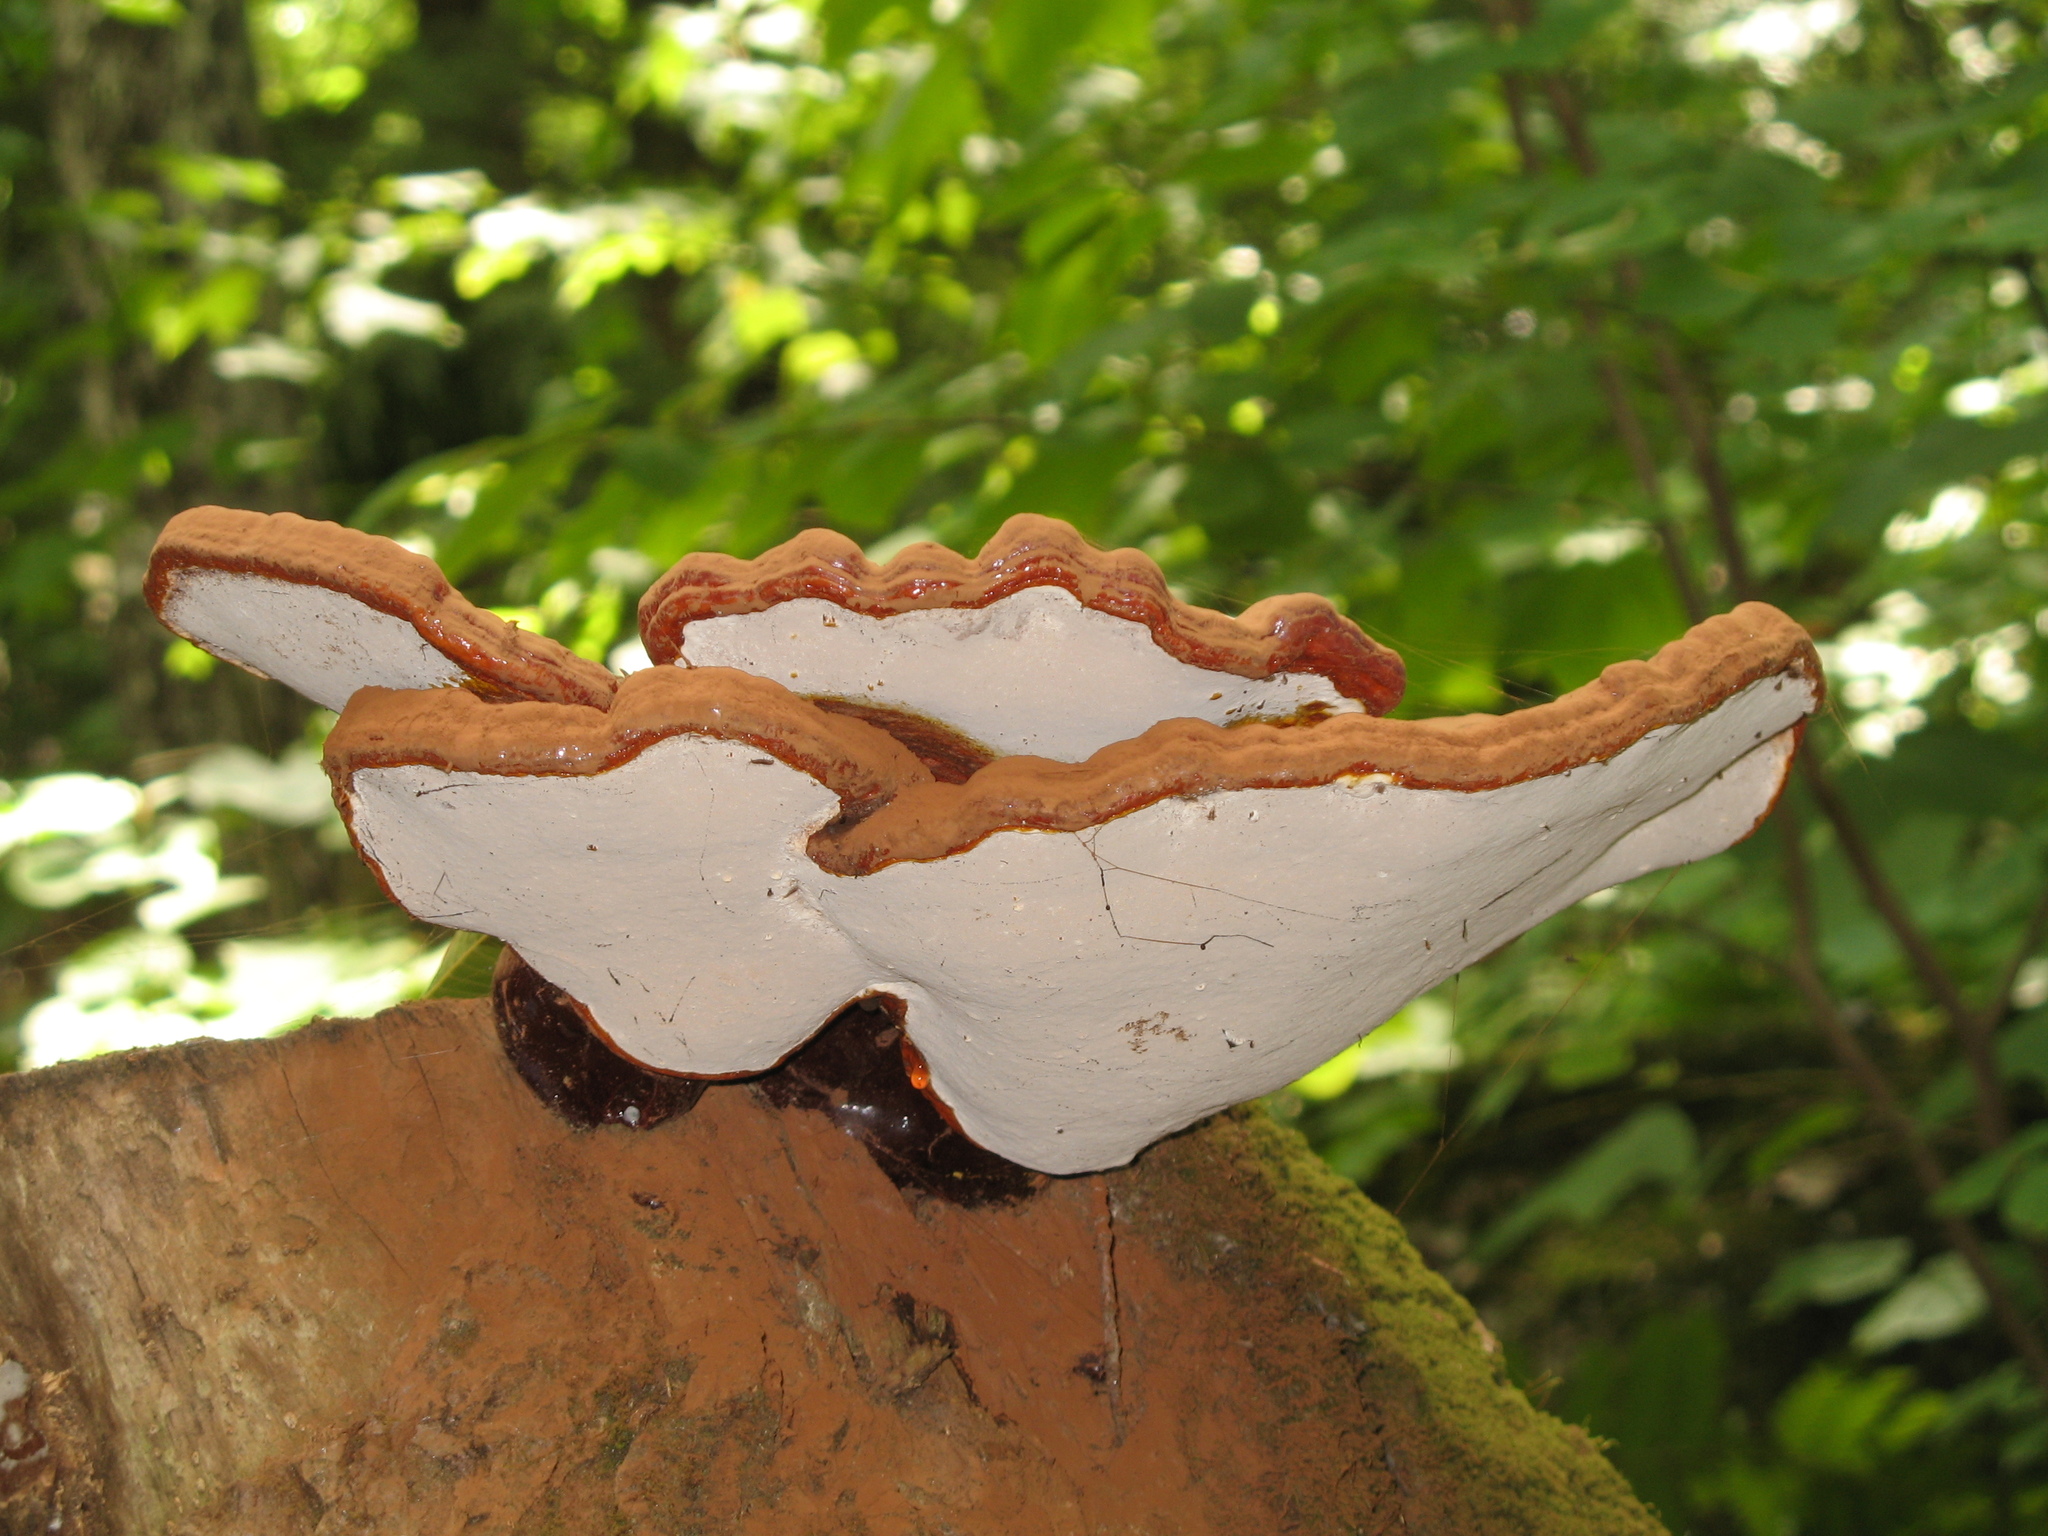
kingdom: Fungi
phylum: Basidiomycota
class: Agaricomycetes
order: Polyporales
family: Polyporaceae
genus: Ganoderma
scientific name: Ganoderma tsugae
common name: Hemlock varnish shelf
